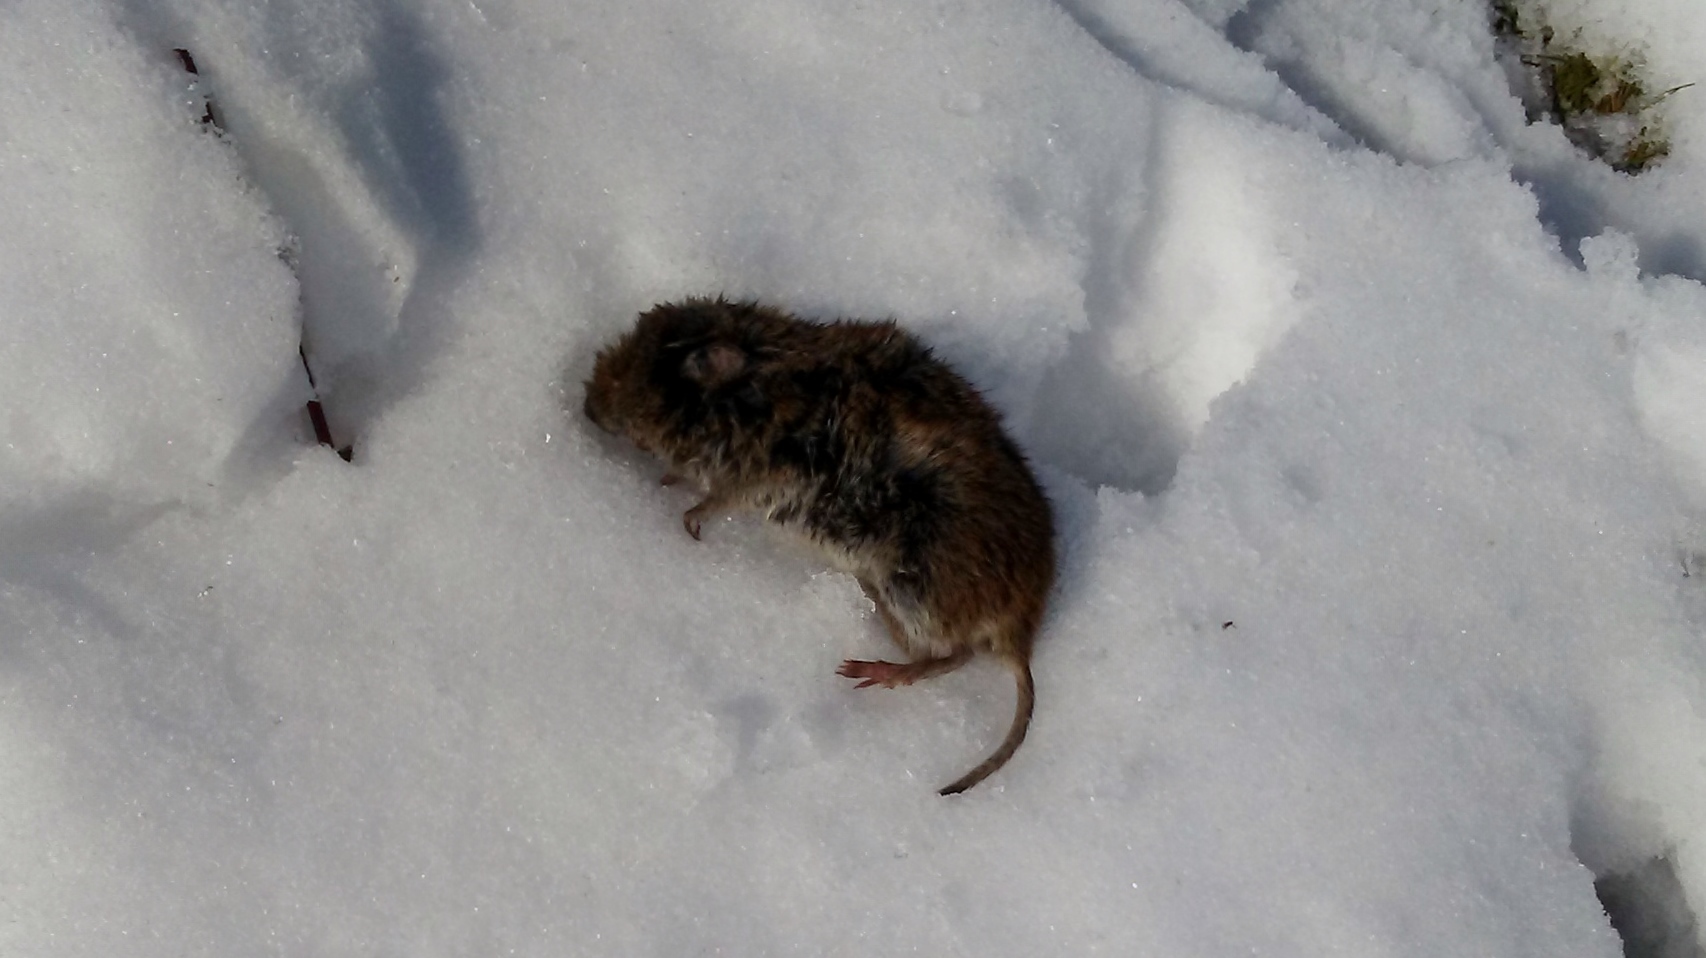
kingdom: Animalia
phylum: Chordata
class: Mammalia
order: Rodentia
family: Cricetidae
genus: Microtus
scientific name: Microtus pennsylvanicus
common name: Meadow vole
